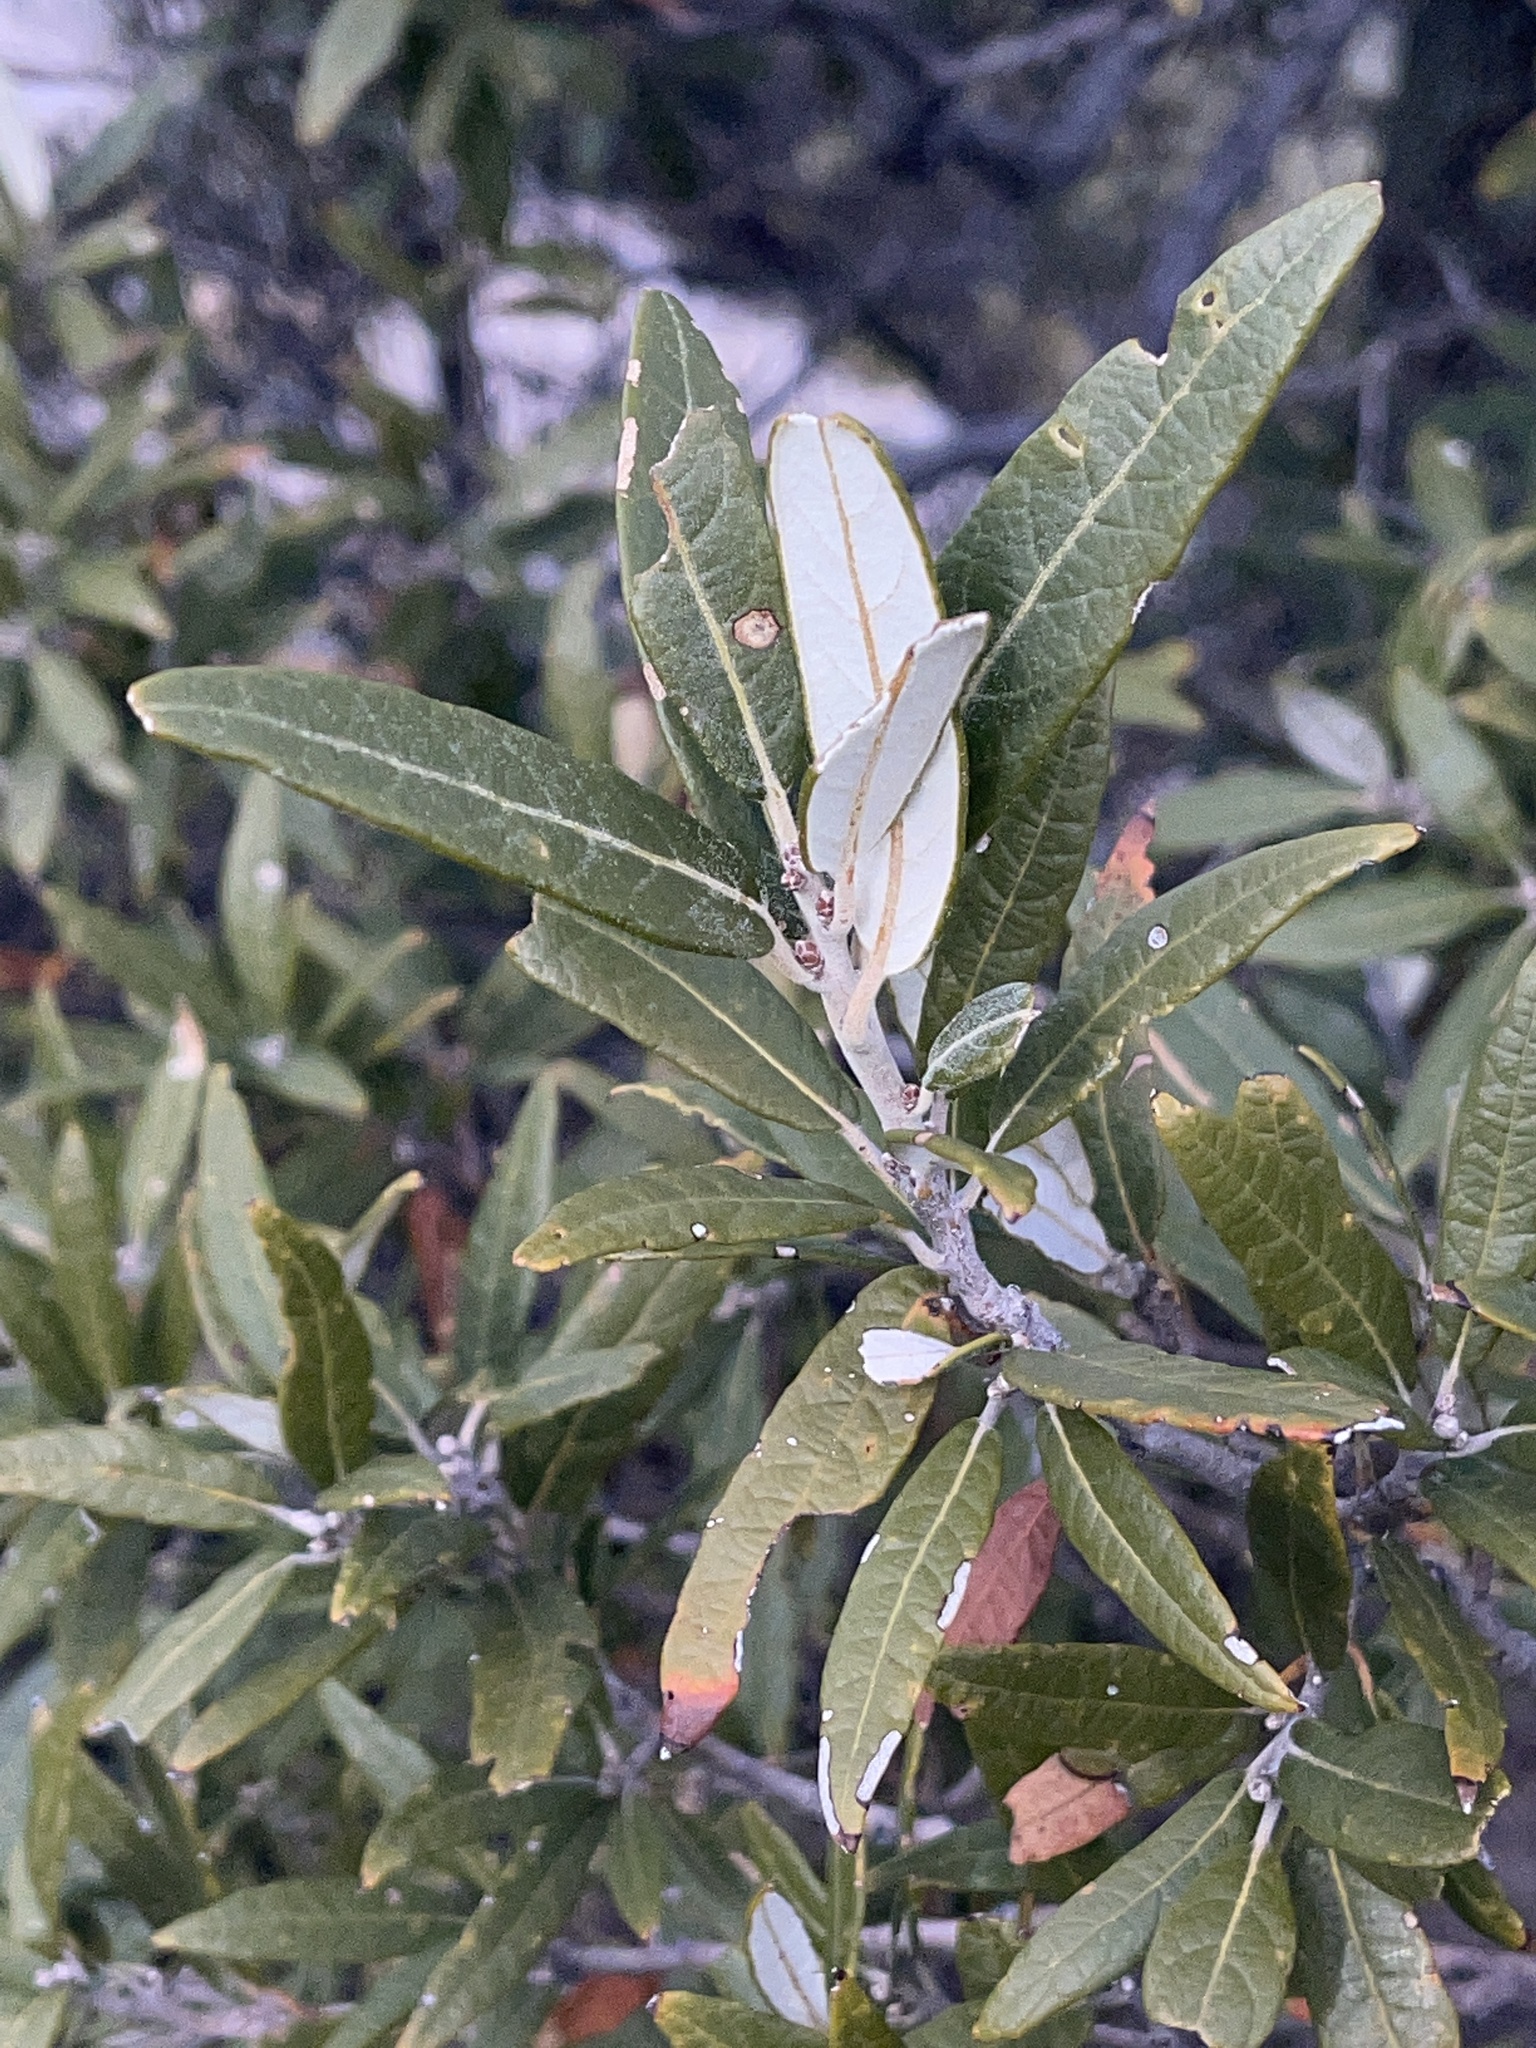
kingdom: Plantae
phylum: Tracheophyta
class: Magnoliopsida
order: Fagales
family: Fagaceae
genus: Quercus
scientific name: Quercus hypoleucoides
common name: Silverleaf oak
